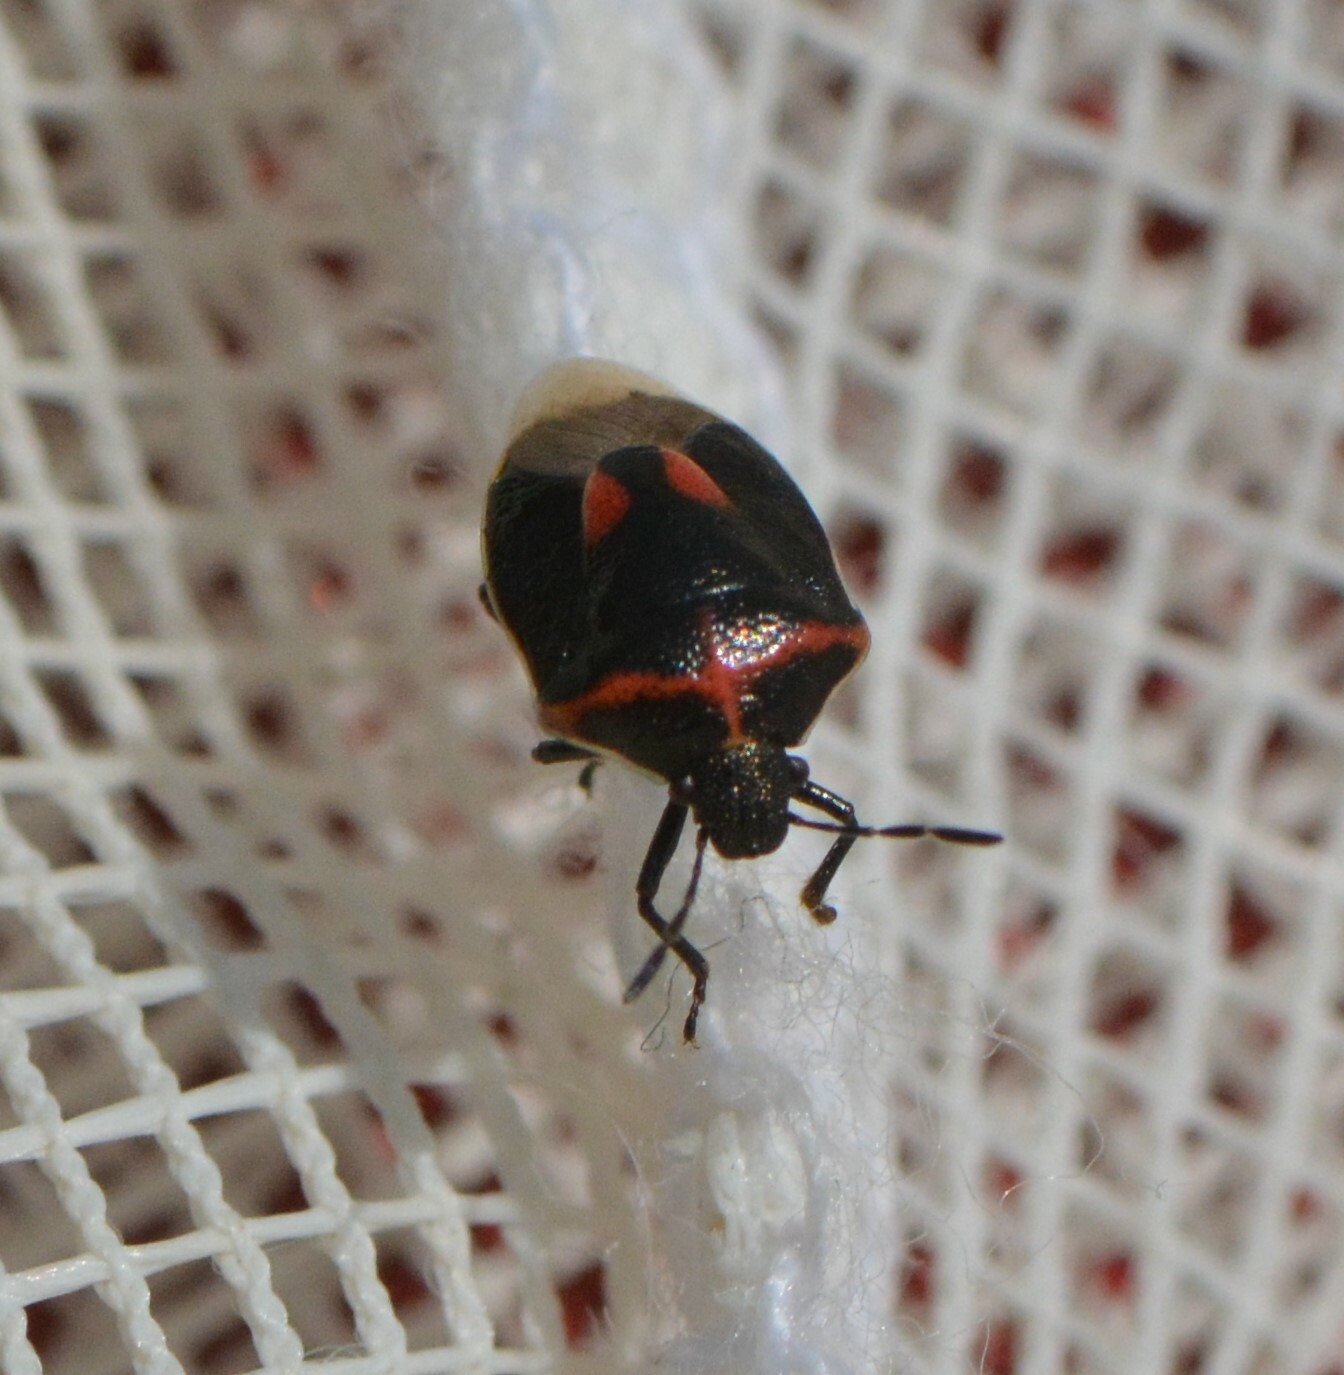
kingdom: Animalia
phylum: Arthropoda
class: Insecta
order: Hemiptera
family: Pentatomidae
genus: Cosmopepla
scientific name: Cosmopepla lintneriana
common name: Twice-stabbed stink bug
